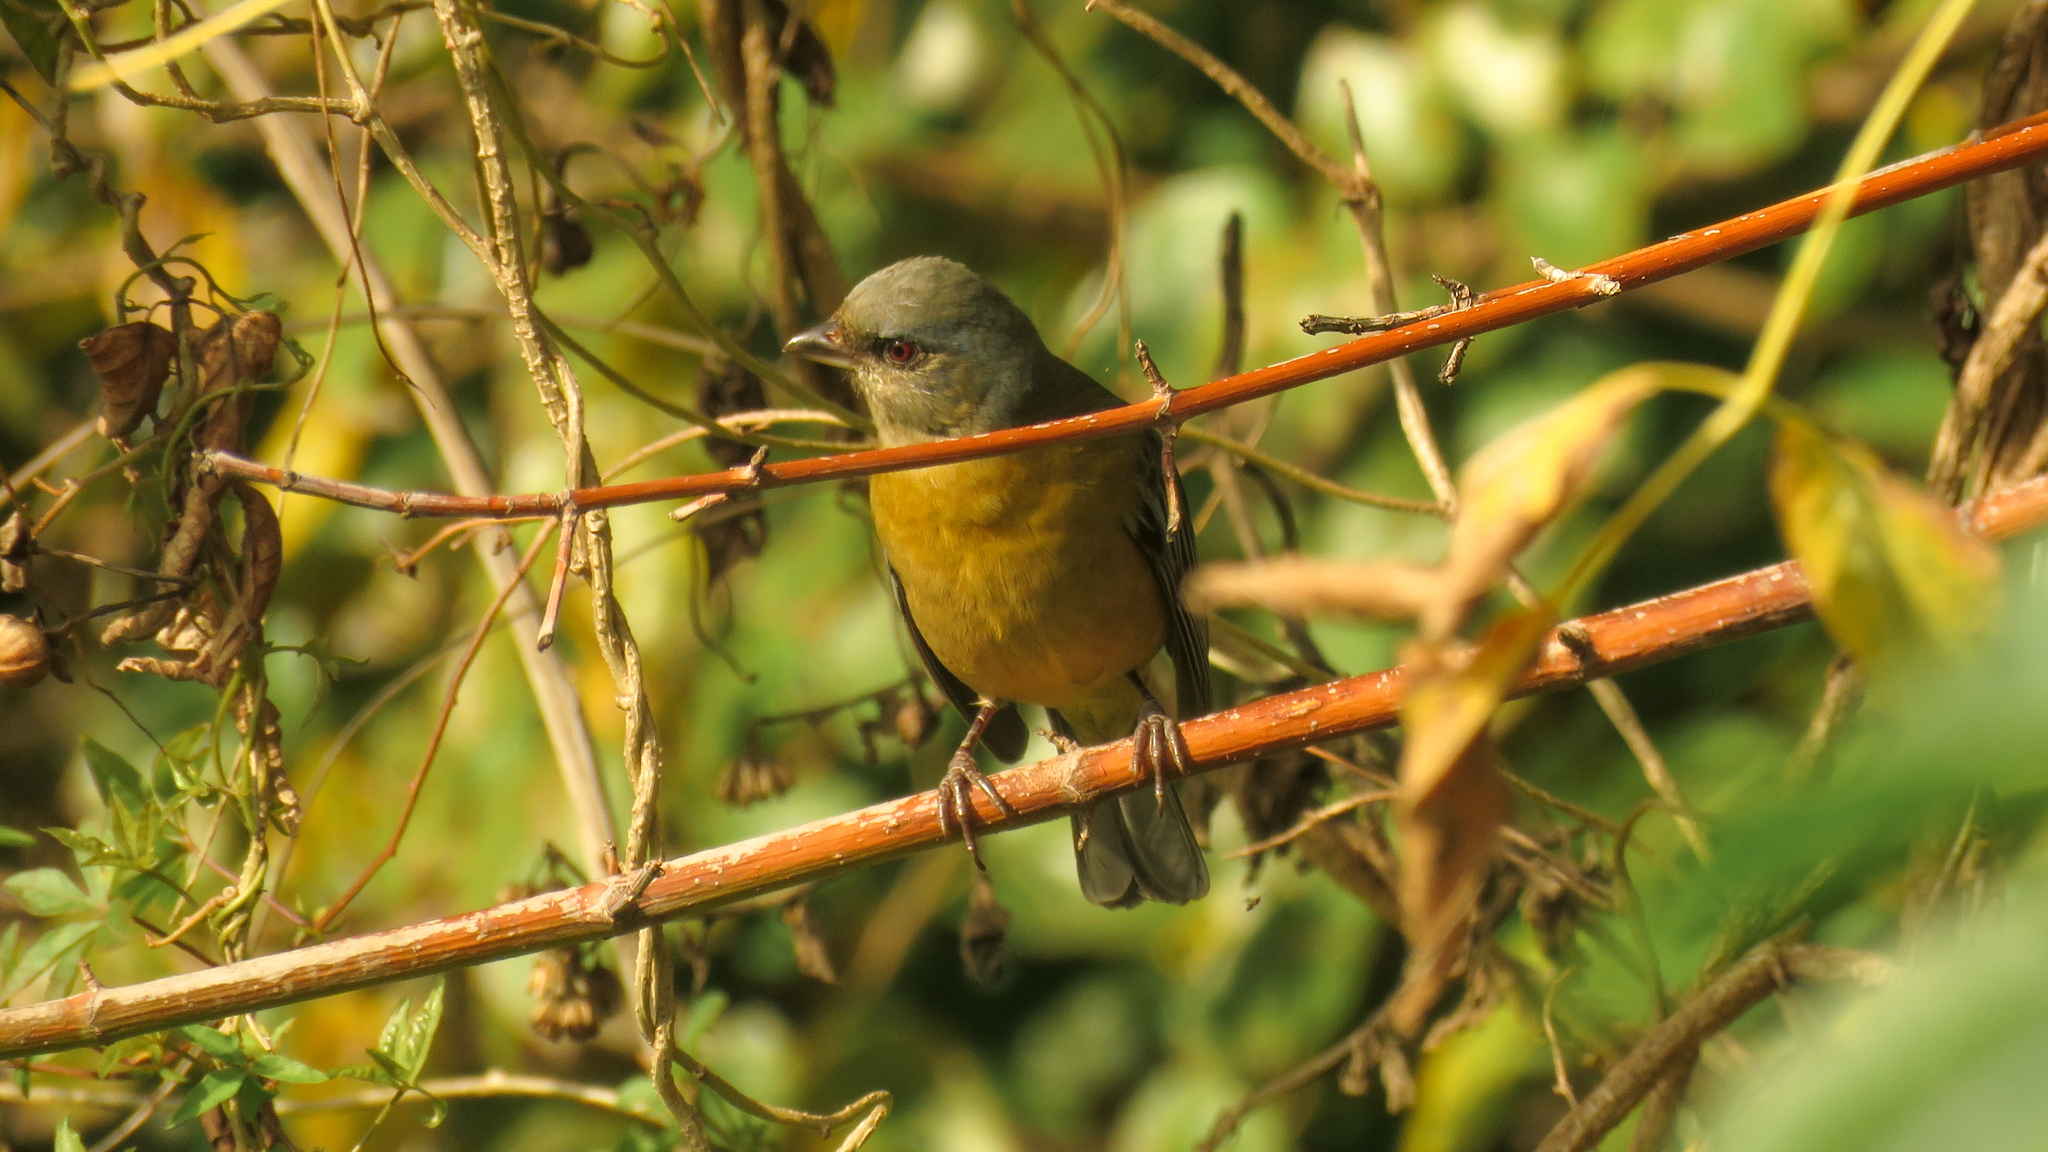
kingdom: Animalia
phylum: Chordata
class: Aves
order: Passeriformes
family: Thraupidae
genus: Rauenia
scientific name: Rauenia bonariensis
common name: Blue-and-yellow tanager
